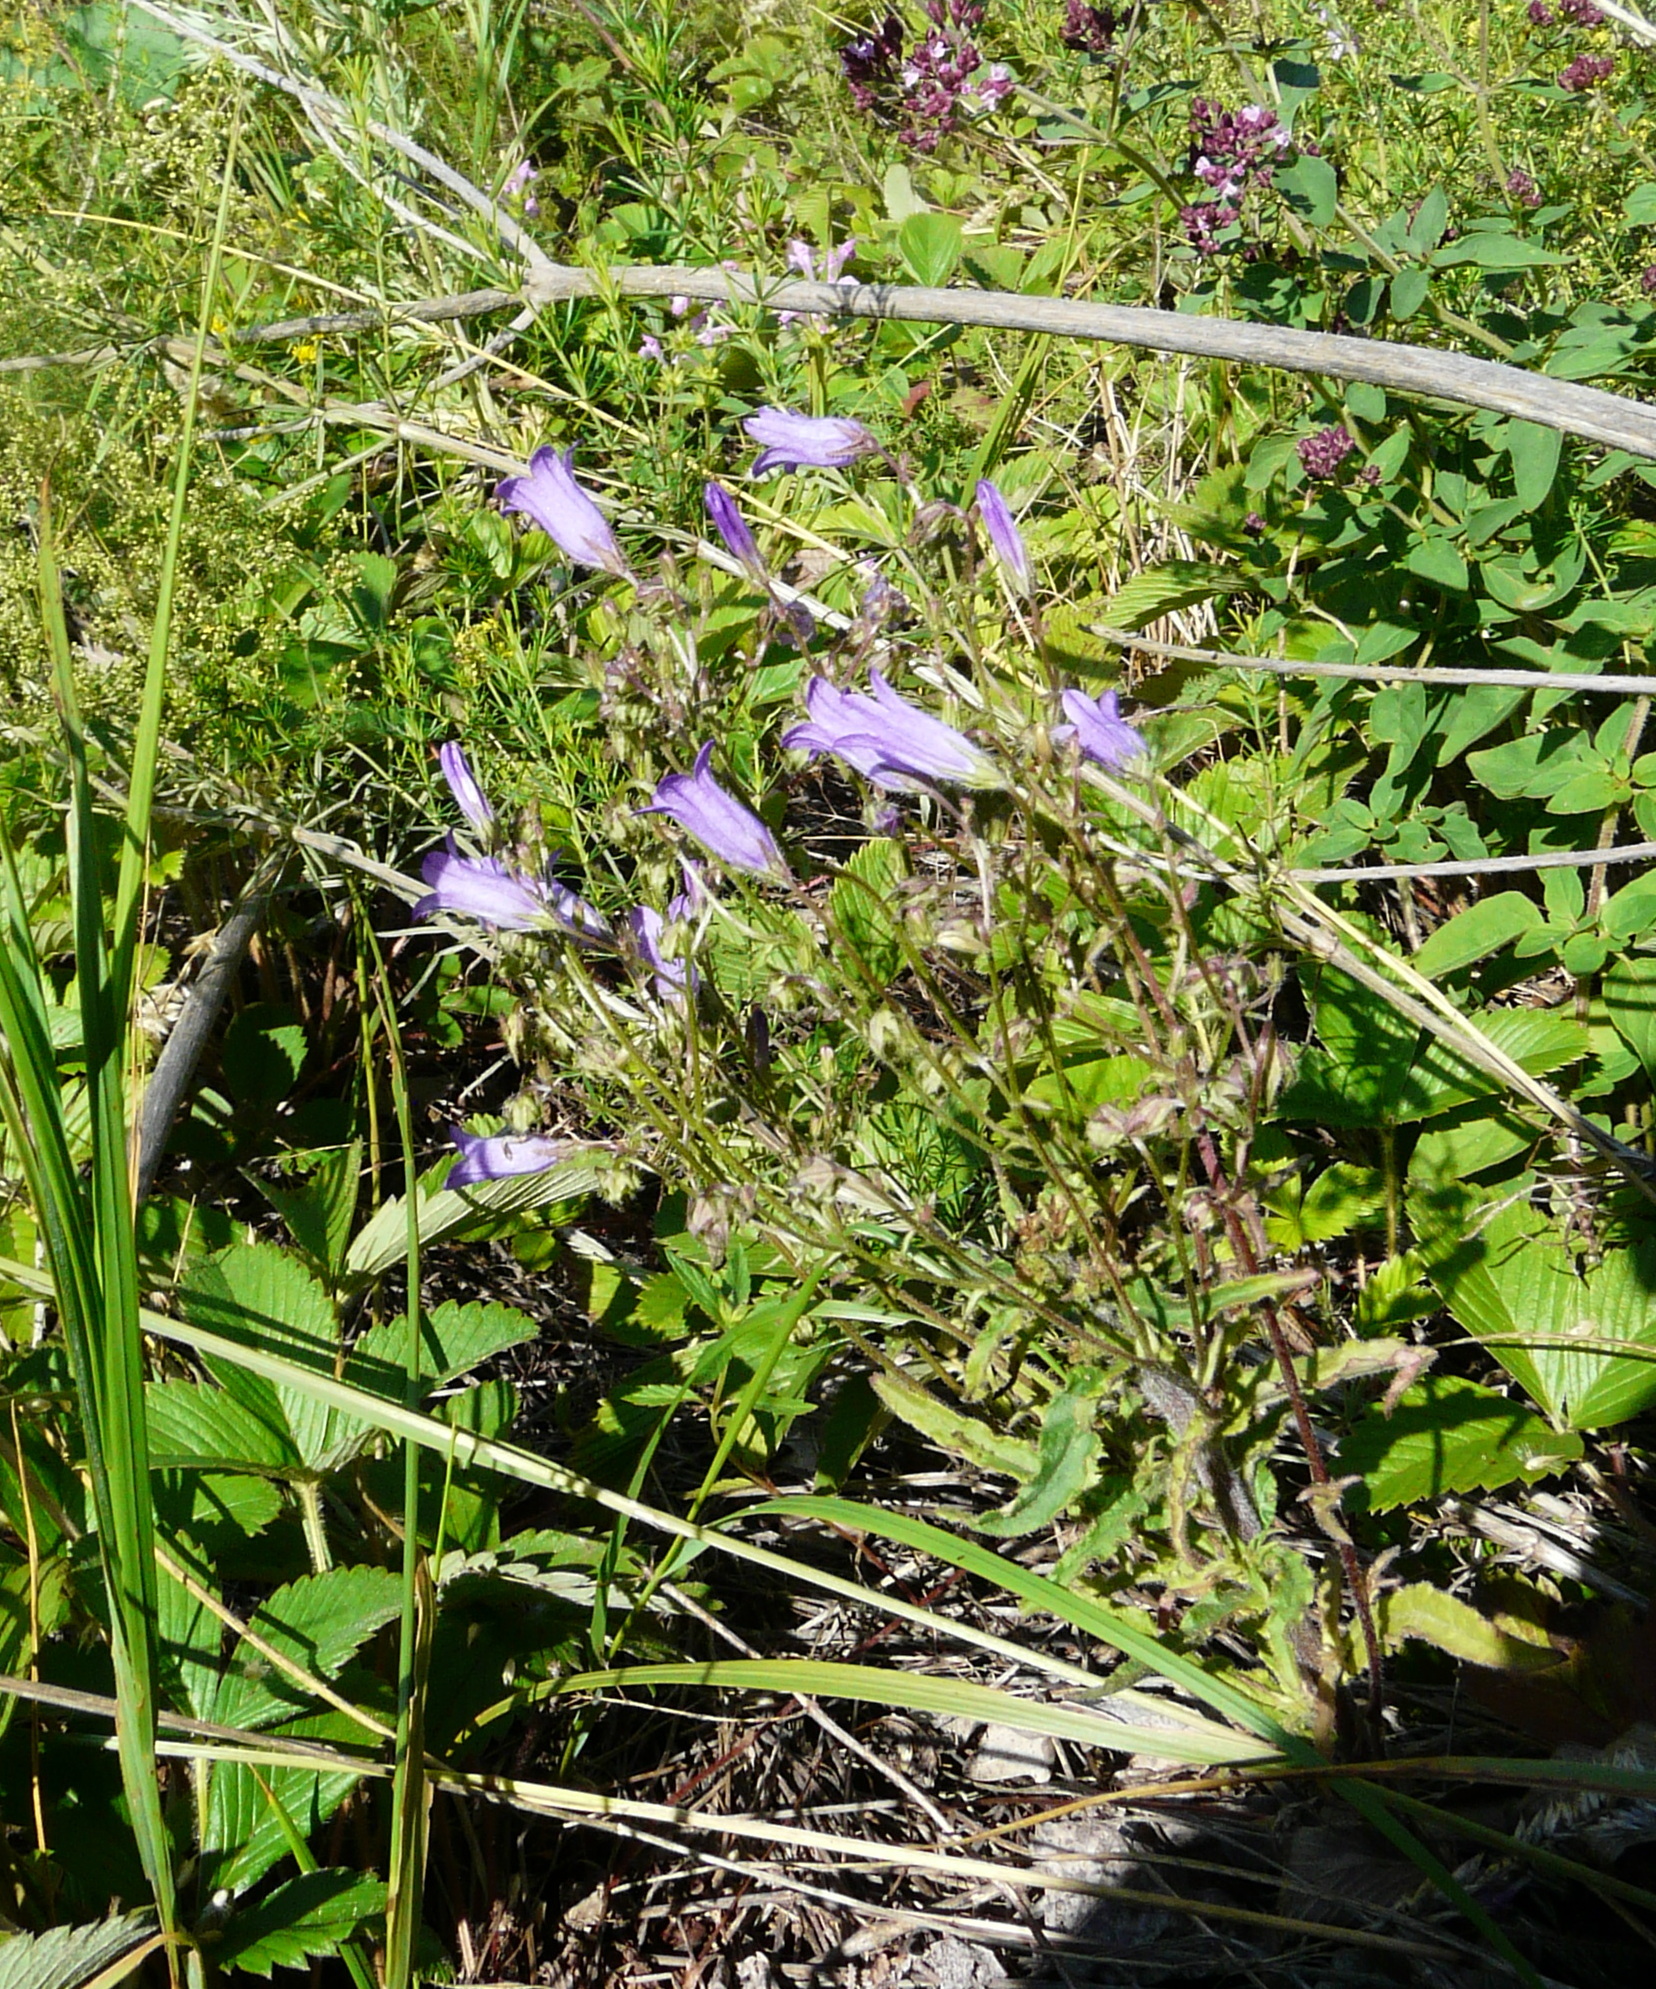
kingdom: Plantae
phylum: Tracheophyta
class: Magnoliopsida
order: Asterales
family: Campanulaceae
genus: Campanula
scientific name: Campanula sibirica
